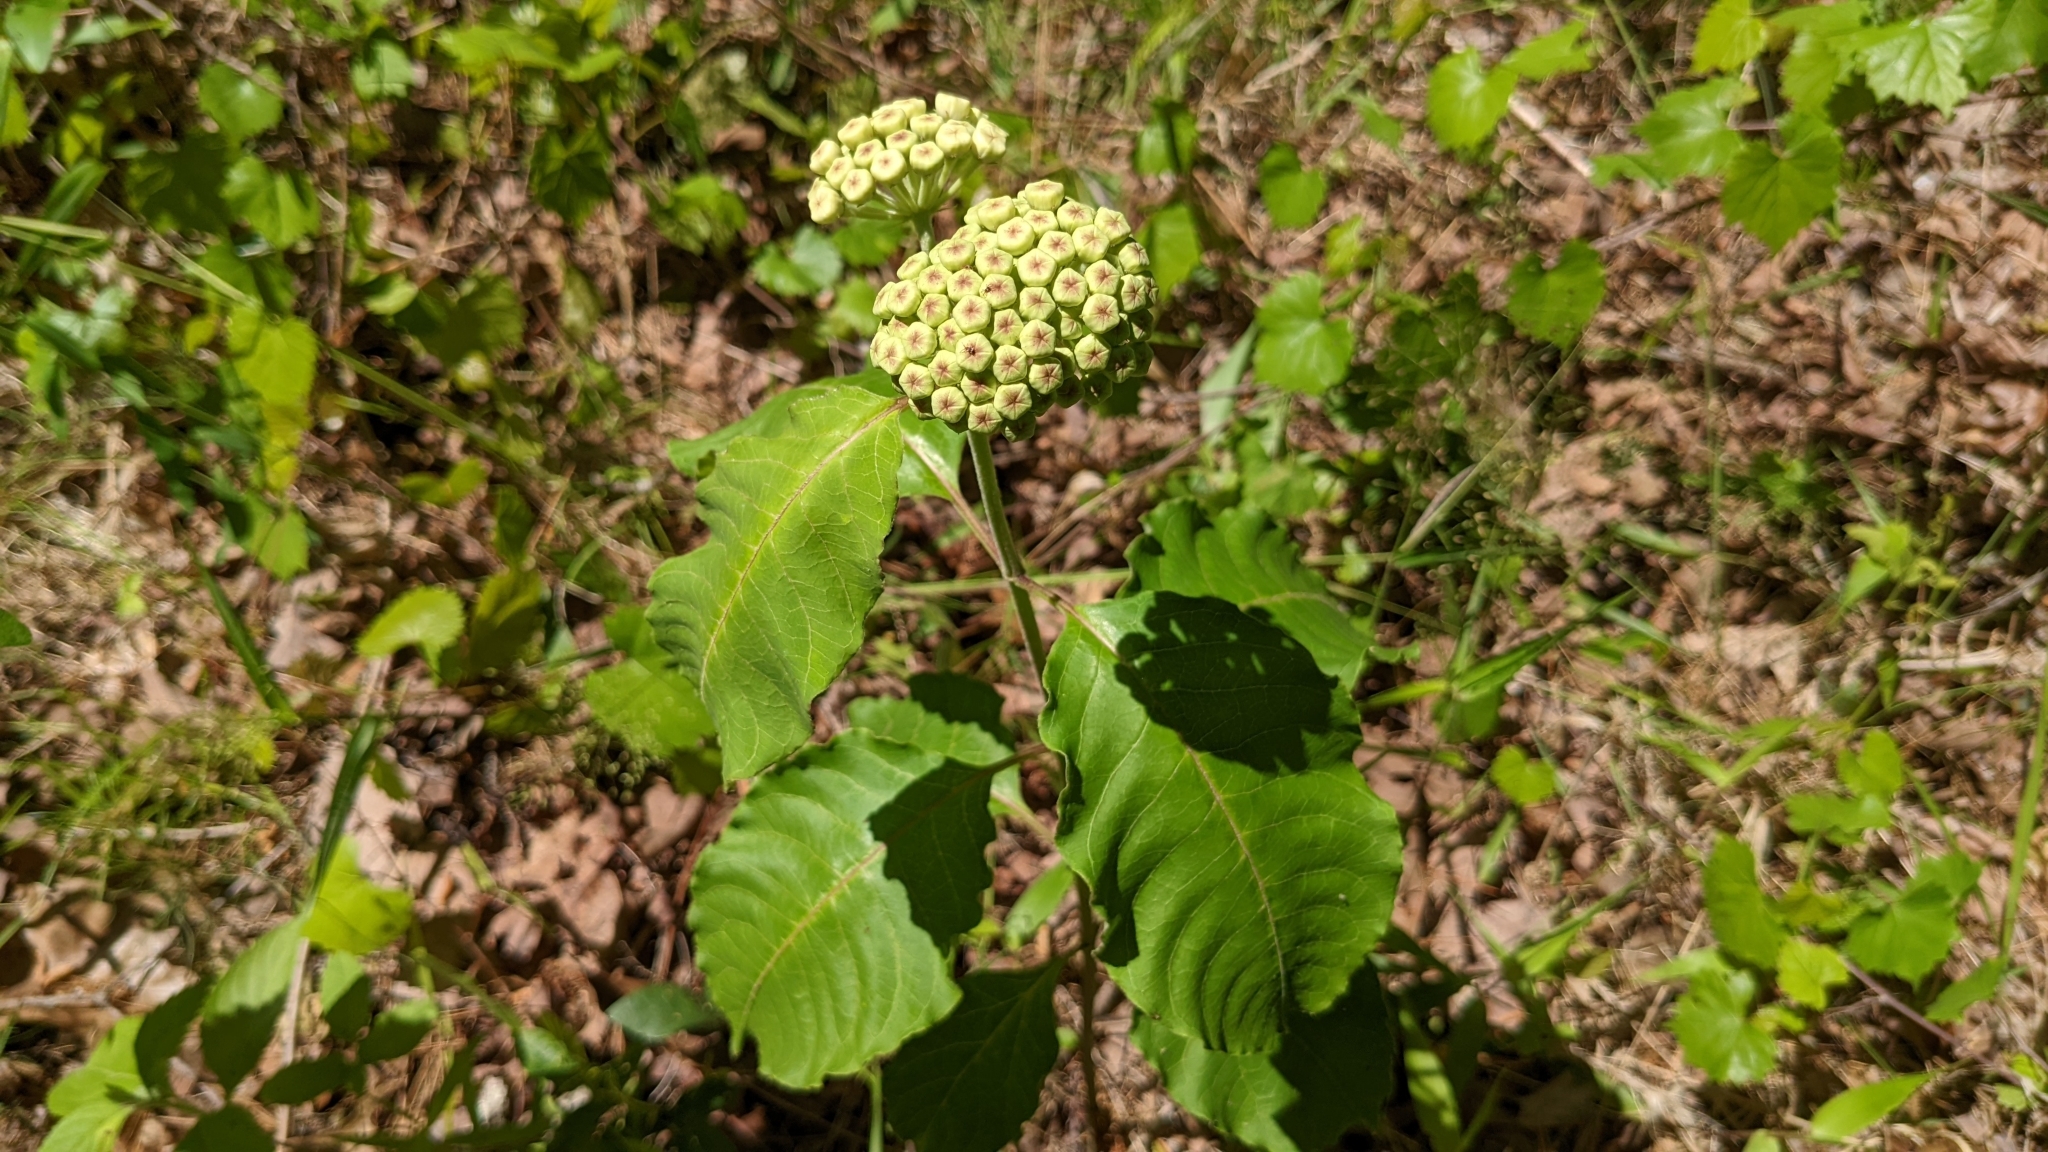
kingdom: Plantae
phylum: Tracheophyta
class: Magnoliopsida
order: Gentianales
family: Apocynaceae
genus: Asclepias
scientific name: Asclepias variegata
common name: Variegated milkweed
